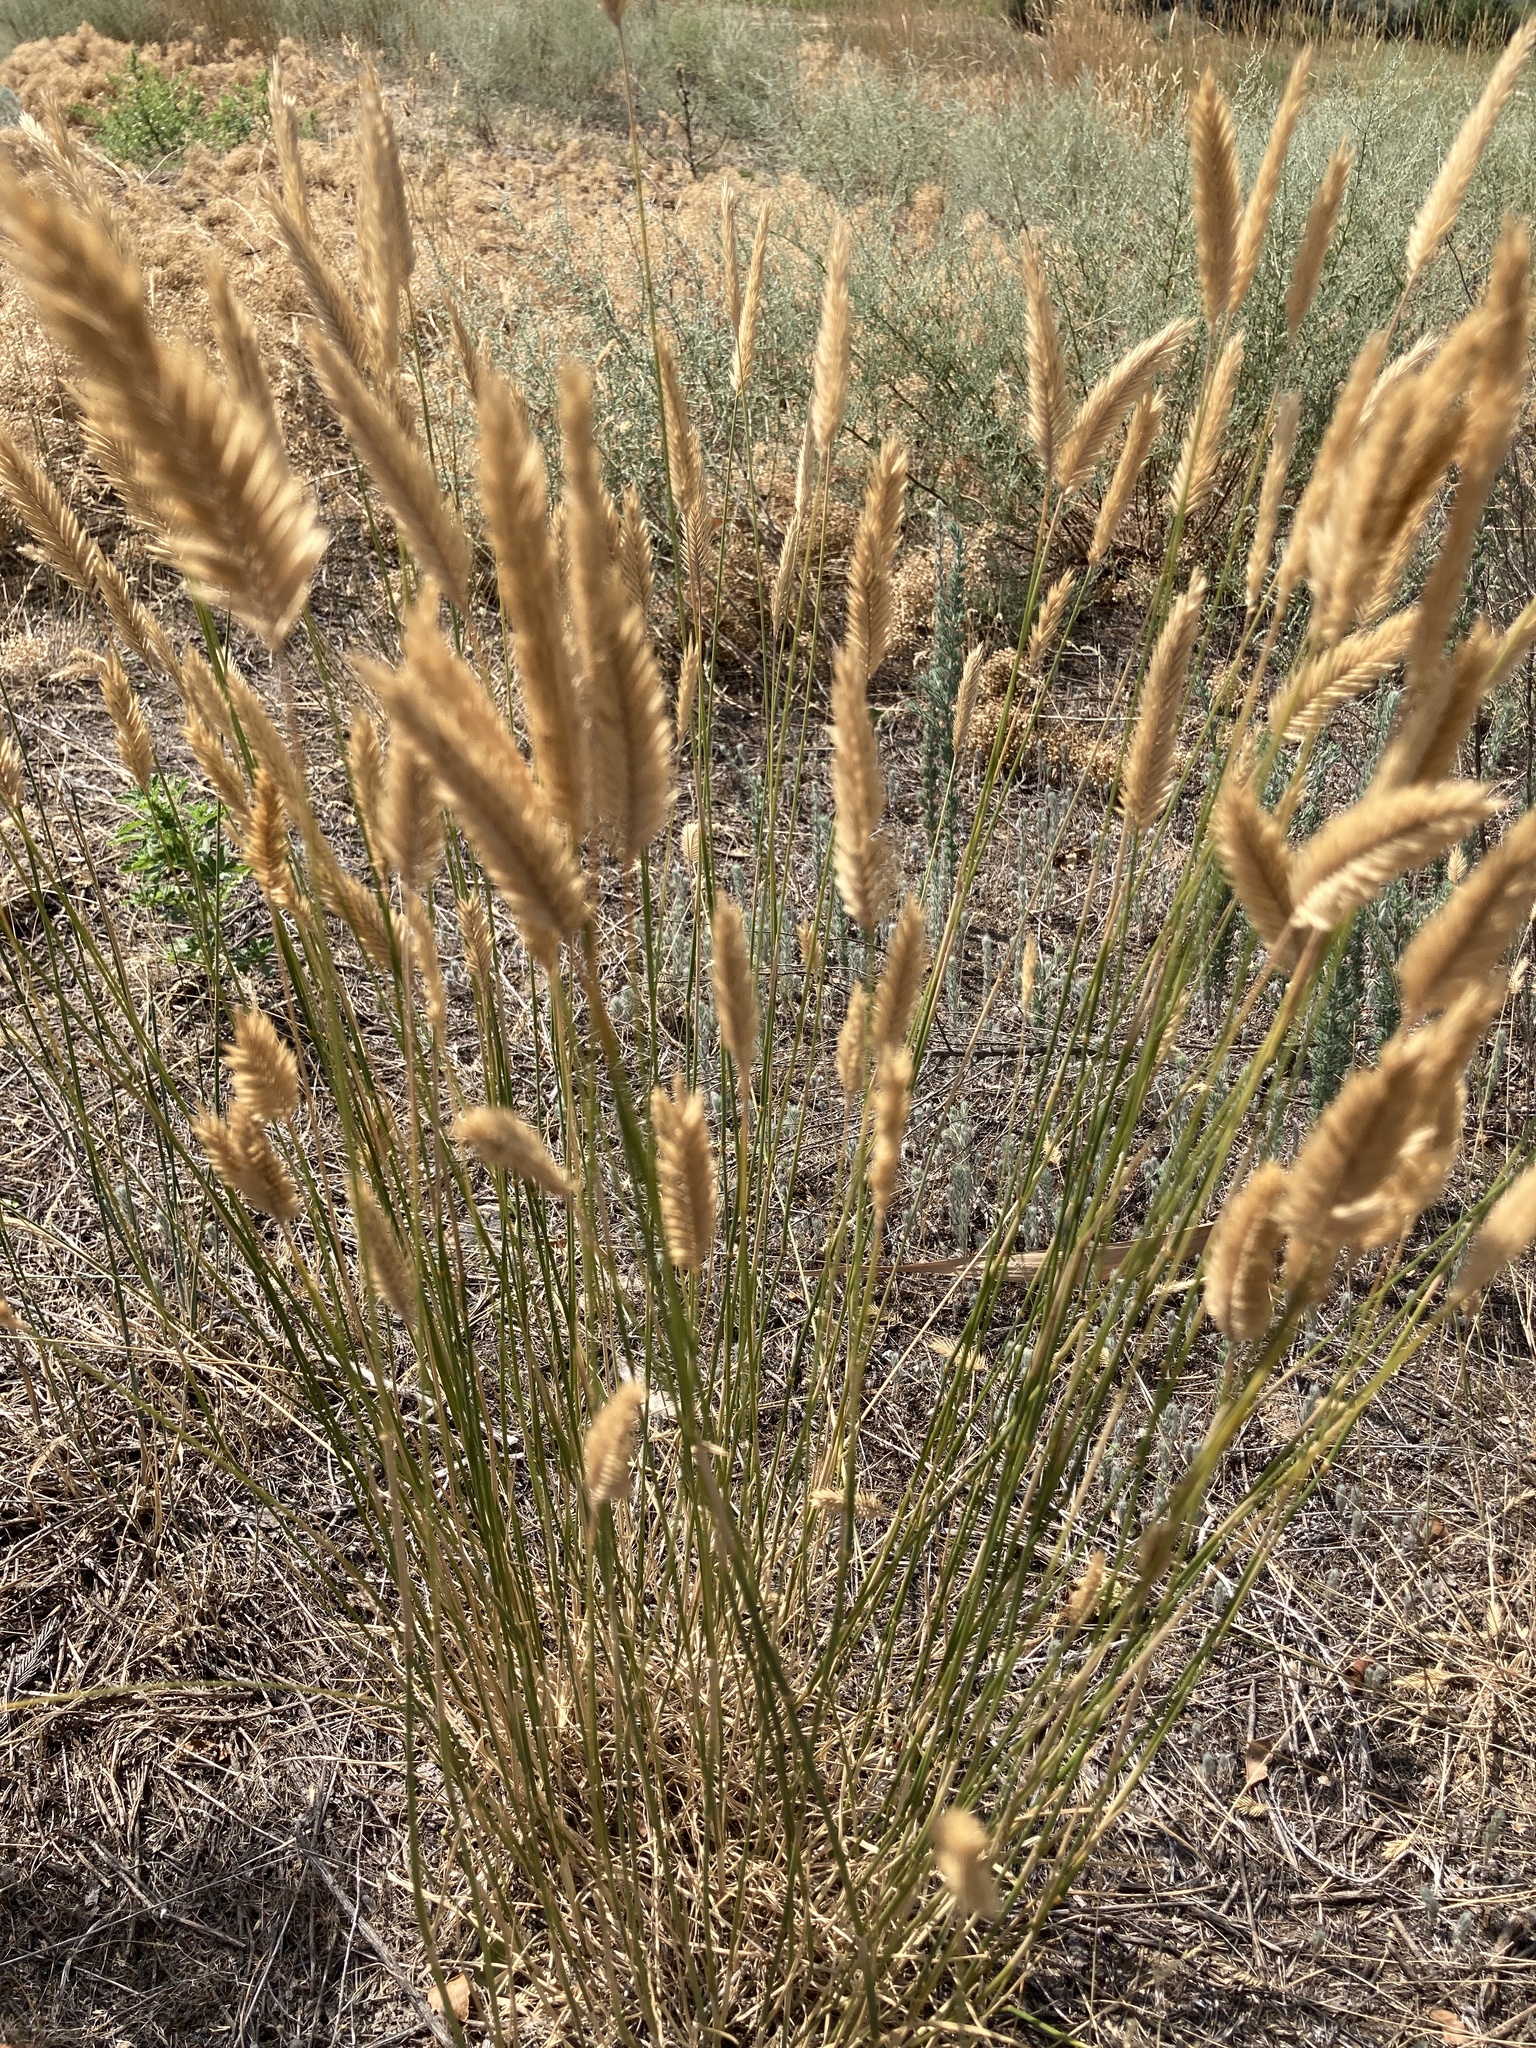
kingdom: Plantae
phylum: Tracheophyta
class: Liliopsida
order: Poales
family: Poaceae
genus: Agropyron
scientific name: Agropyron cristatum
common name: Crested wheatgrass
